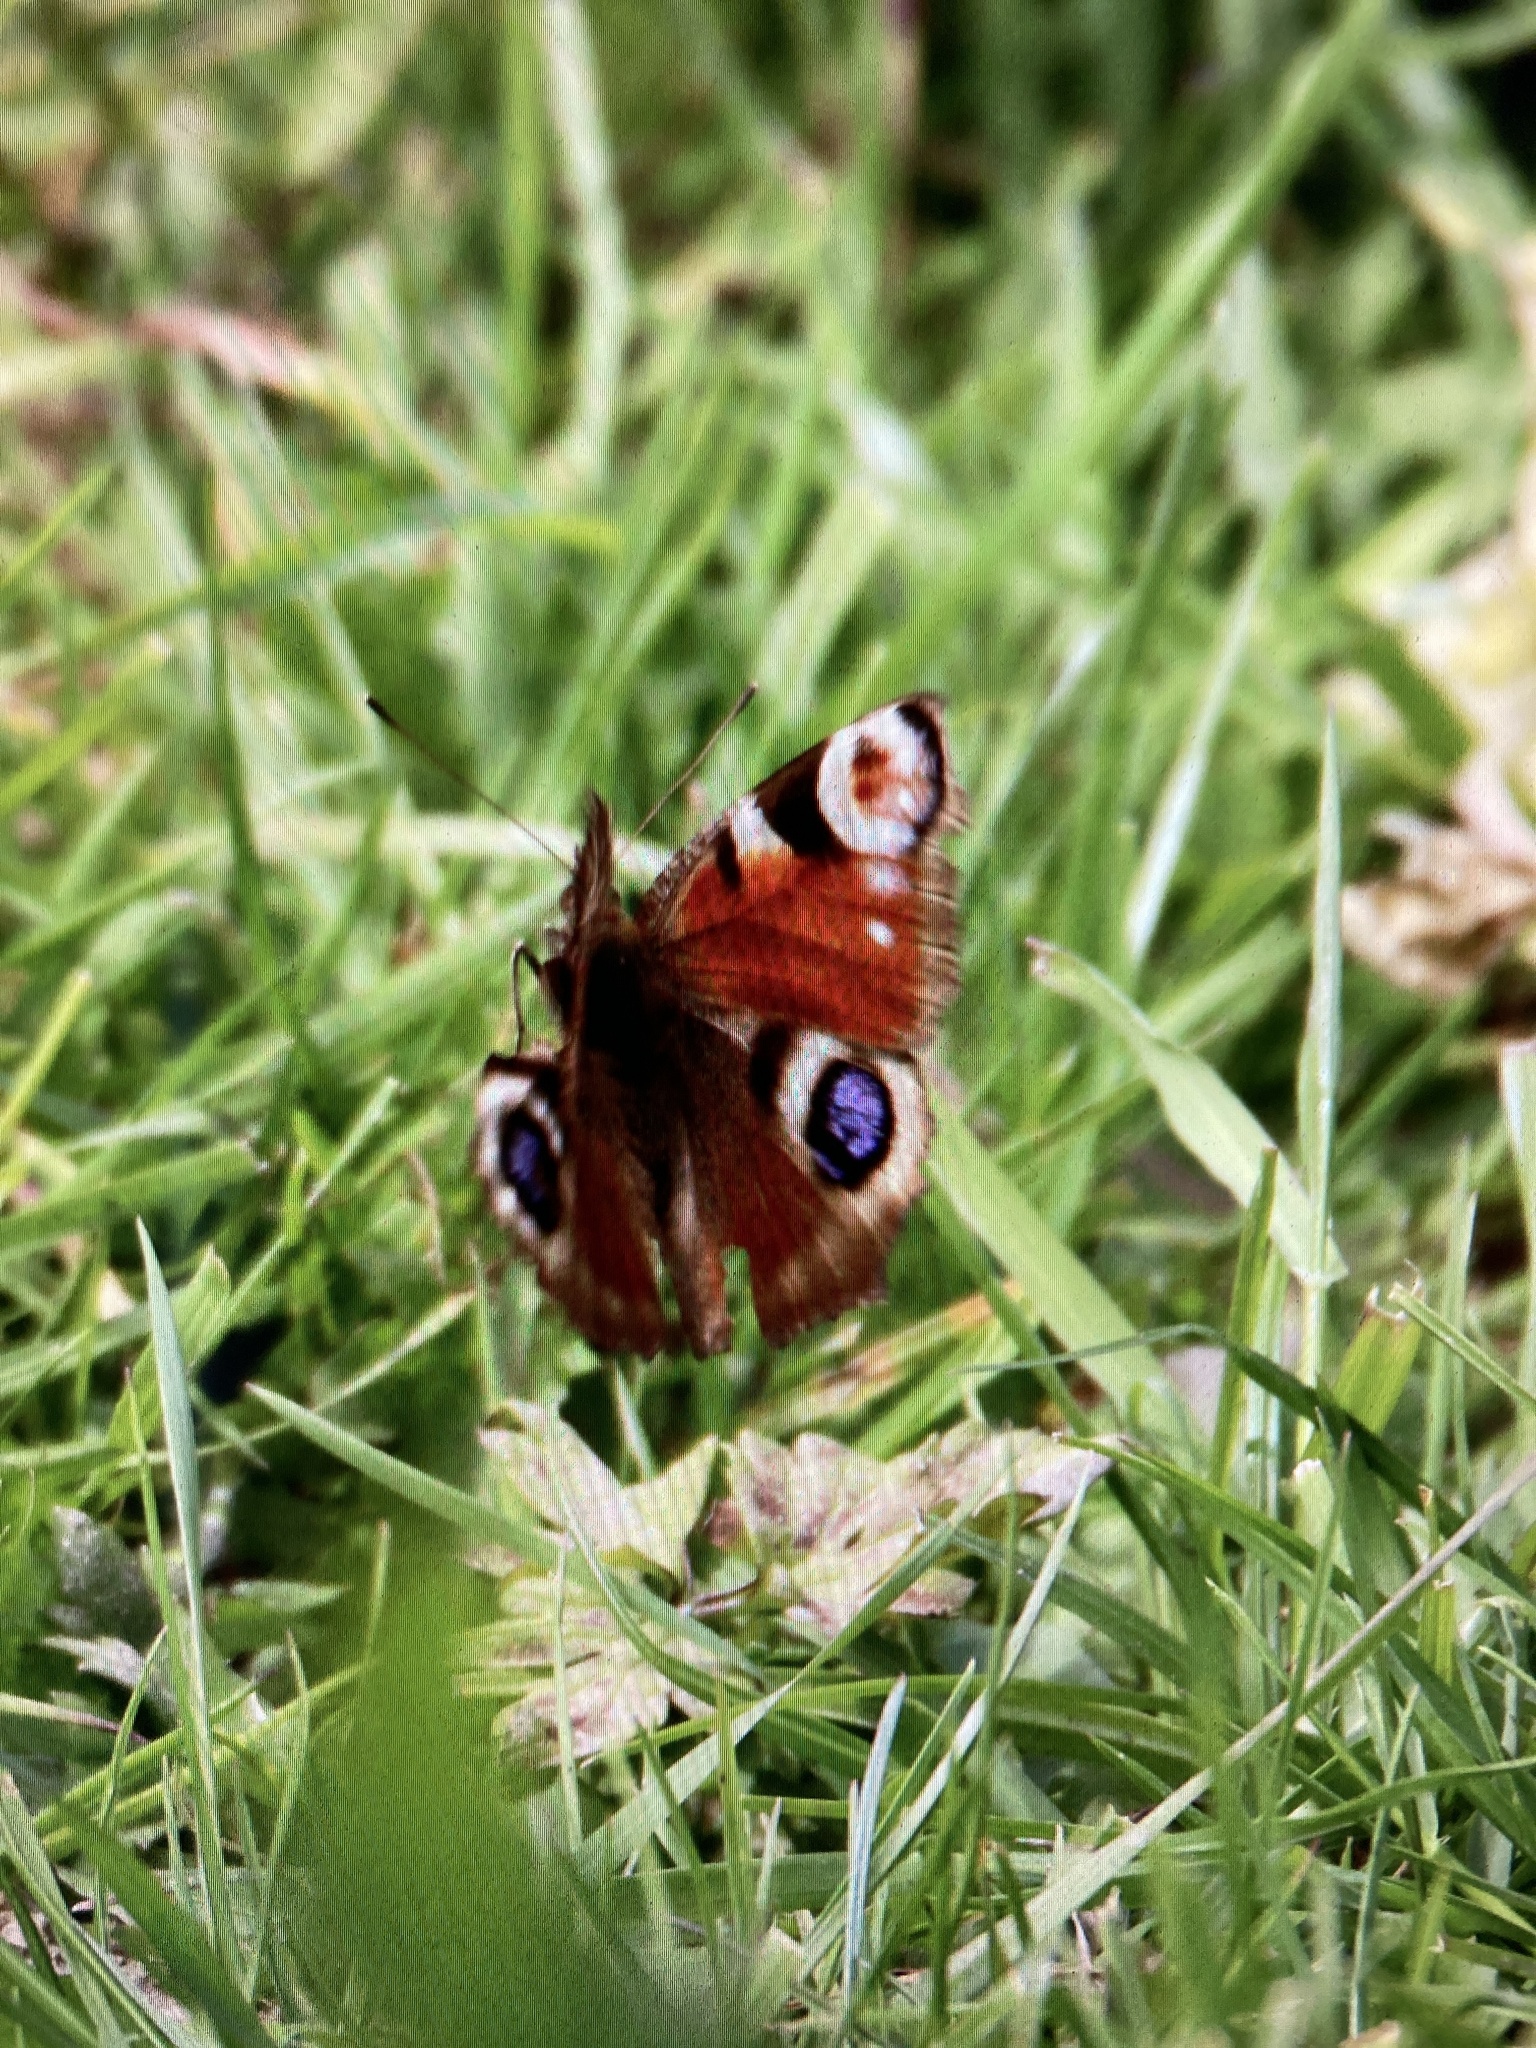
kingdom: Animalia
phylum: Arthropoda
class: Insecta
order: Lepidoptera
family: Nymphalidae
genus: Aglais
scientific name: Aglais io
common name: Peacock
